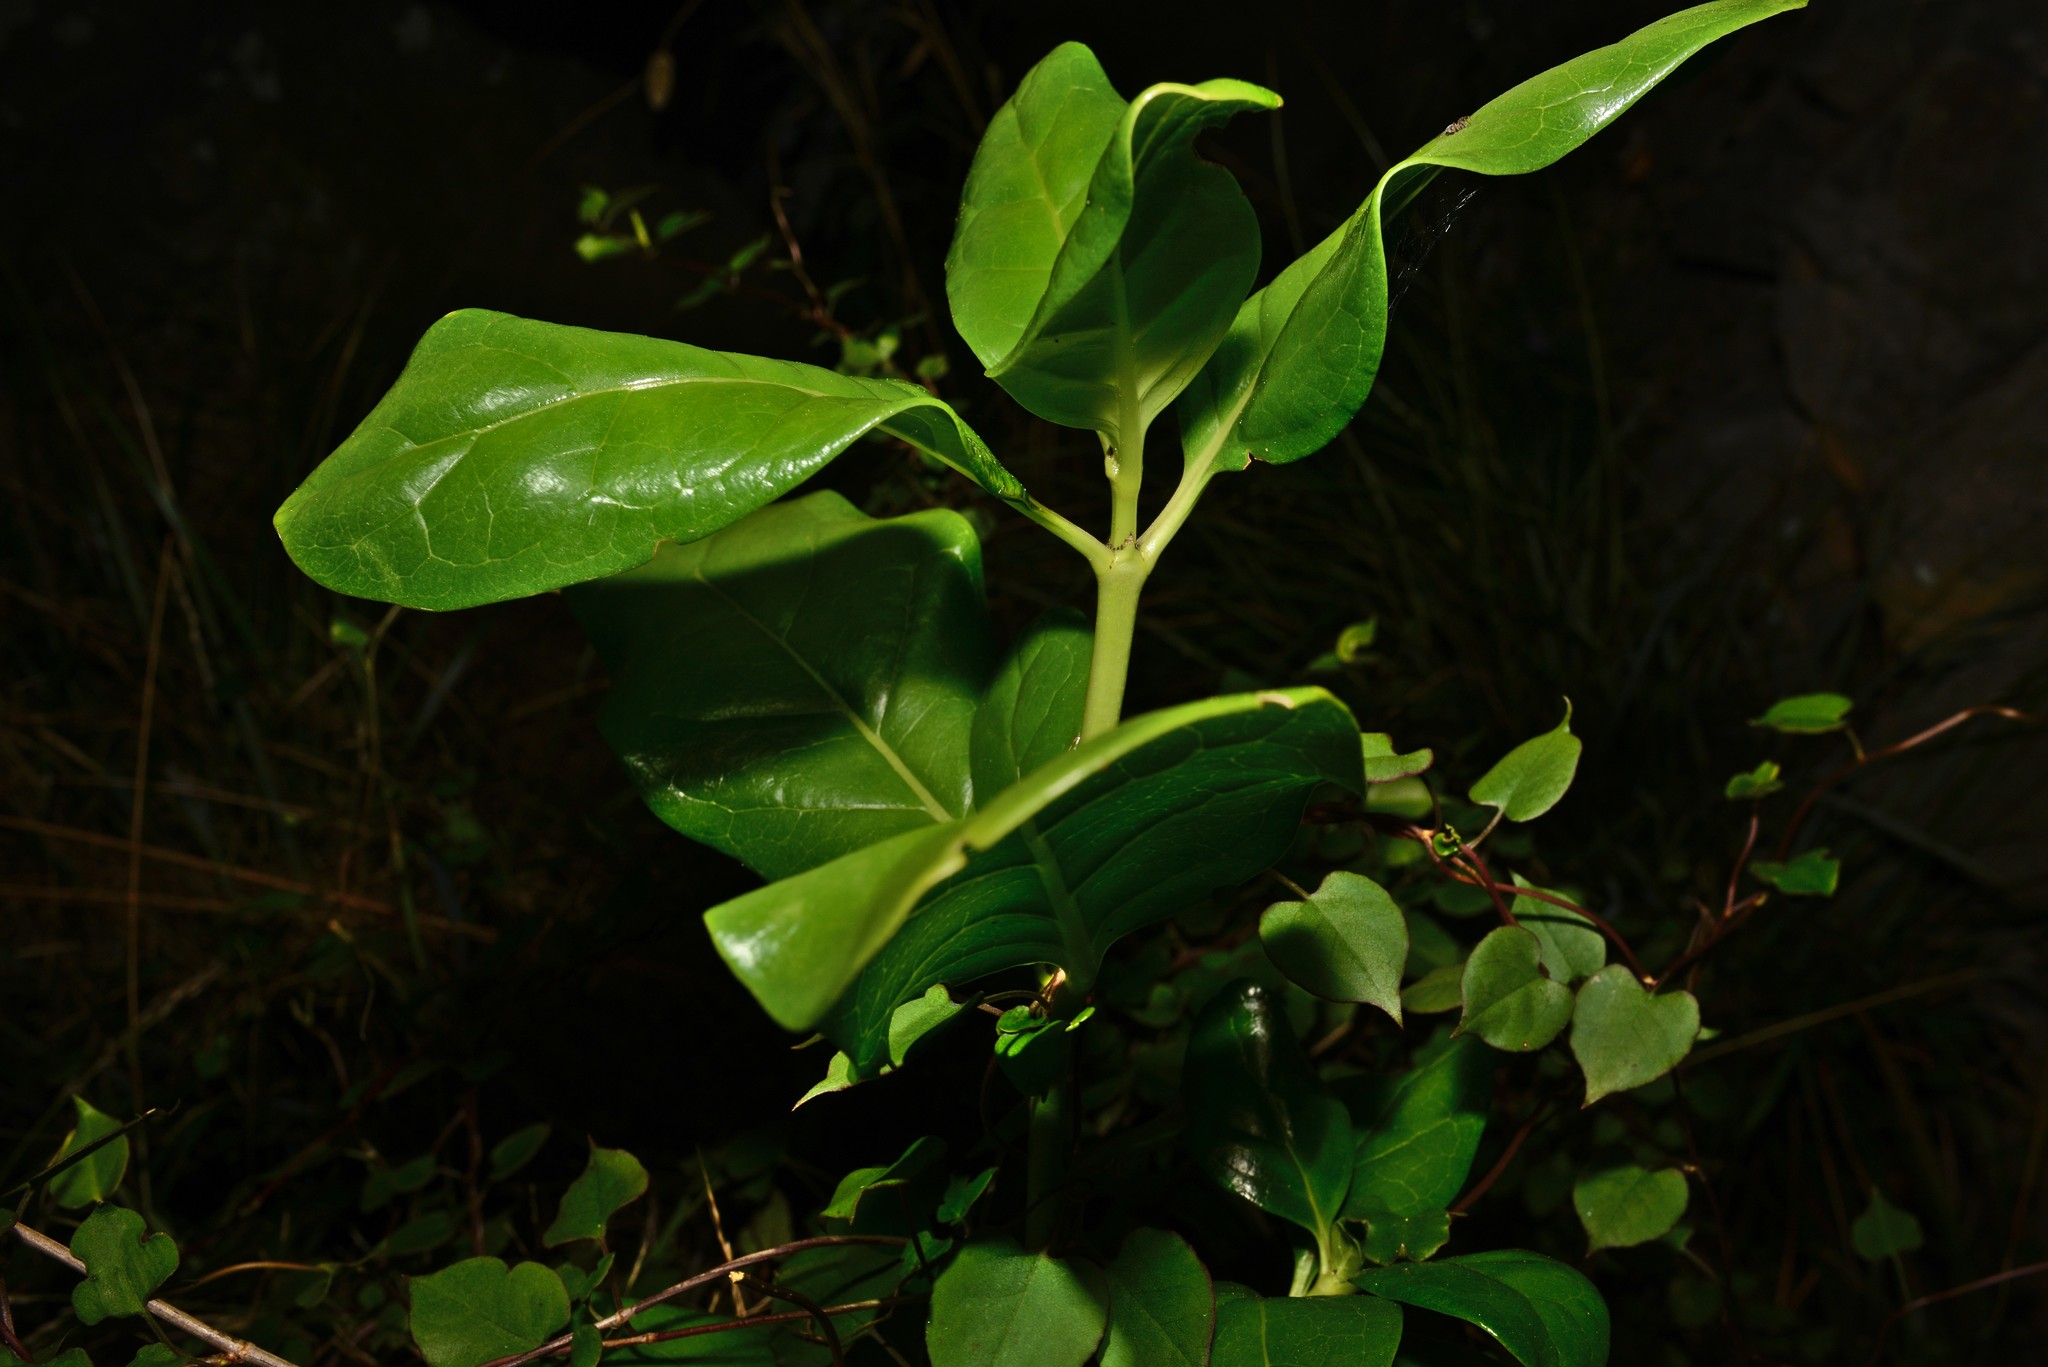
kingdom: Plantae
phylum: Tracheophyta
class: Magnoliopsida
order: Gentianales
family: Rubiaceae
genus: Coprosma
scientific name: Coprosma repens
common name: Tree bedstraw
